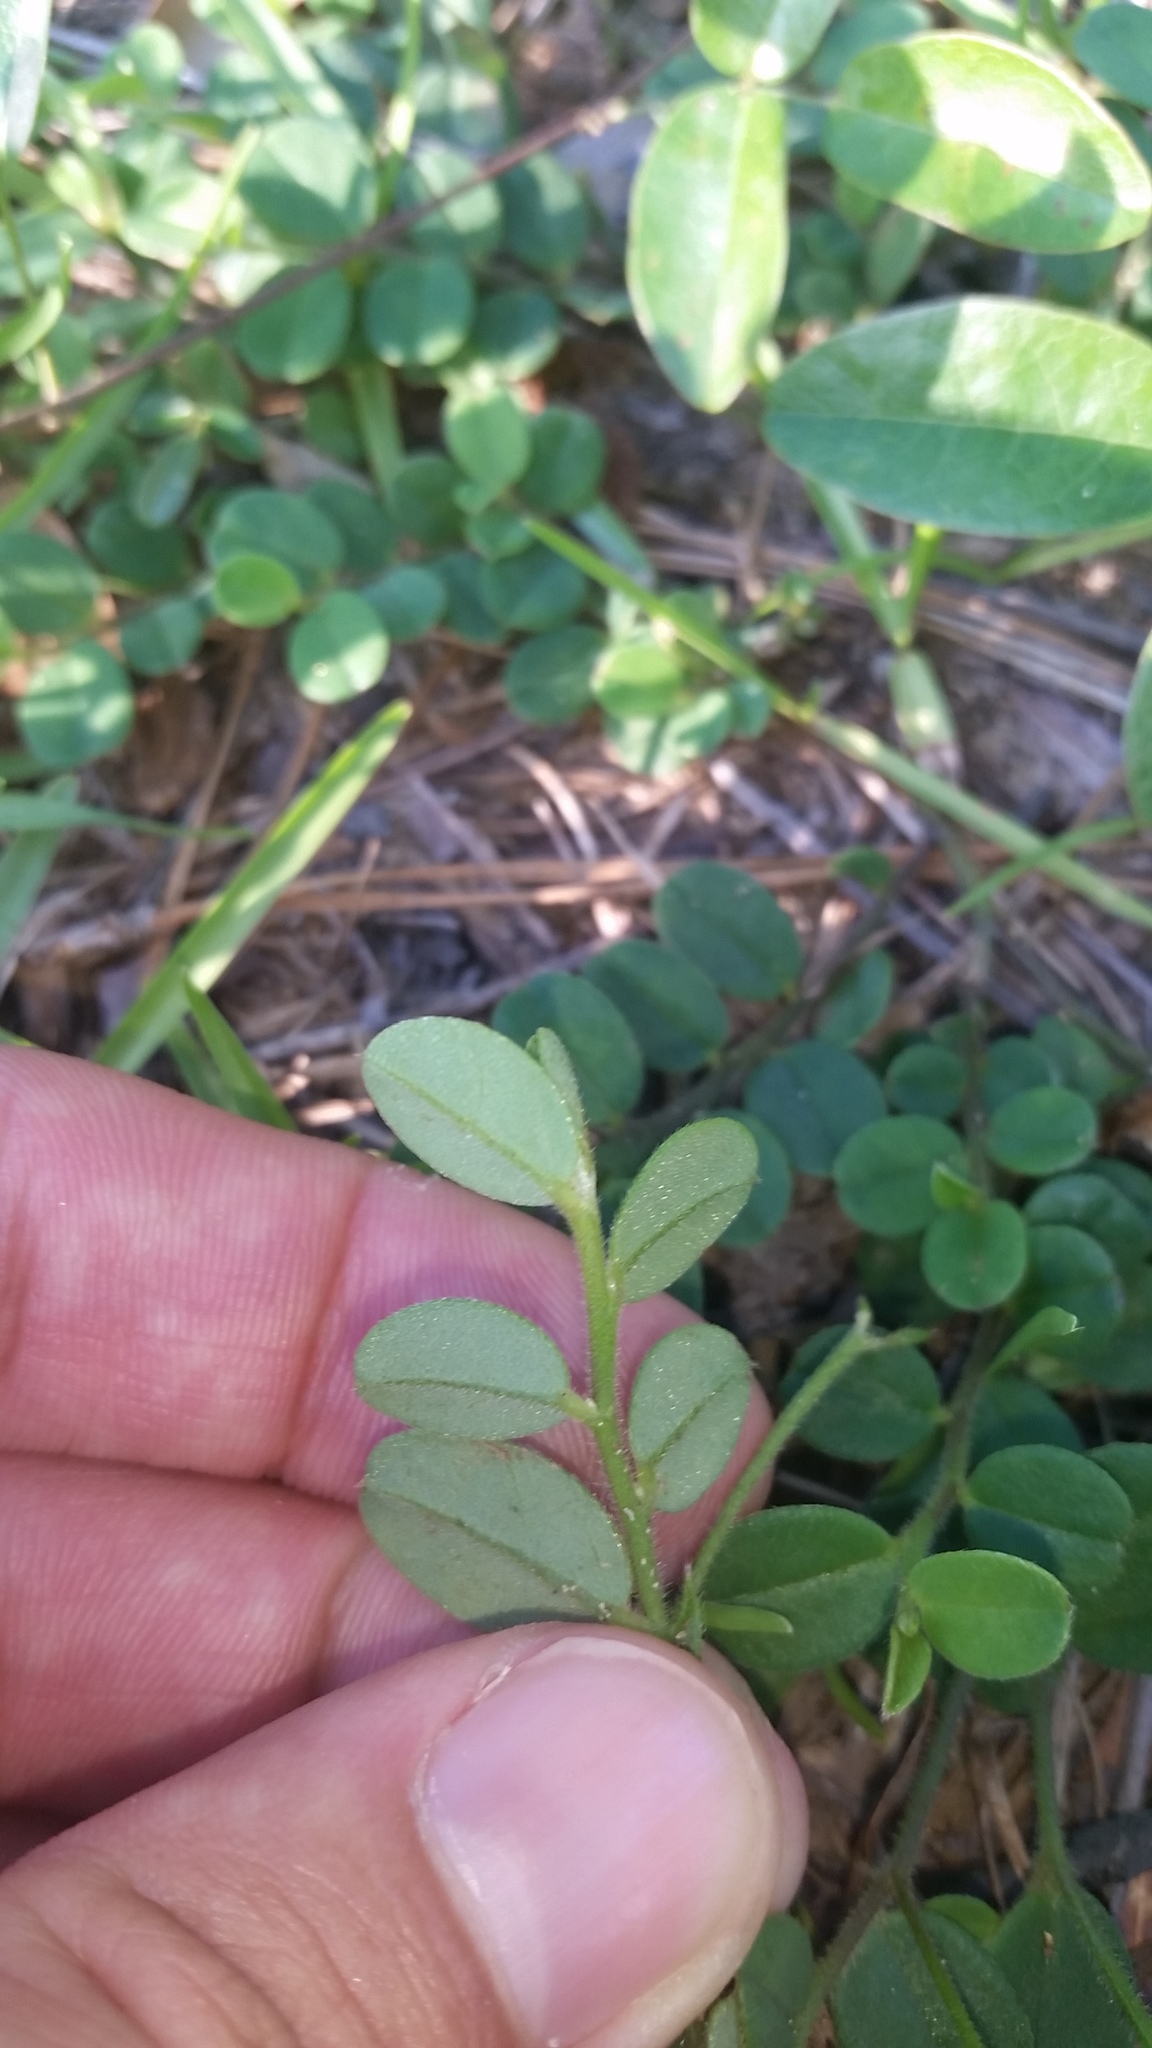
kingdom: Plantae
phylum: Tracheophyta
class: Magnoliopsida
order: Fabales
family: Fabaceae
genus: Crotalaria
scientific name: Crotalaria rotundifolia
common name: Prostrate rattlebox
